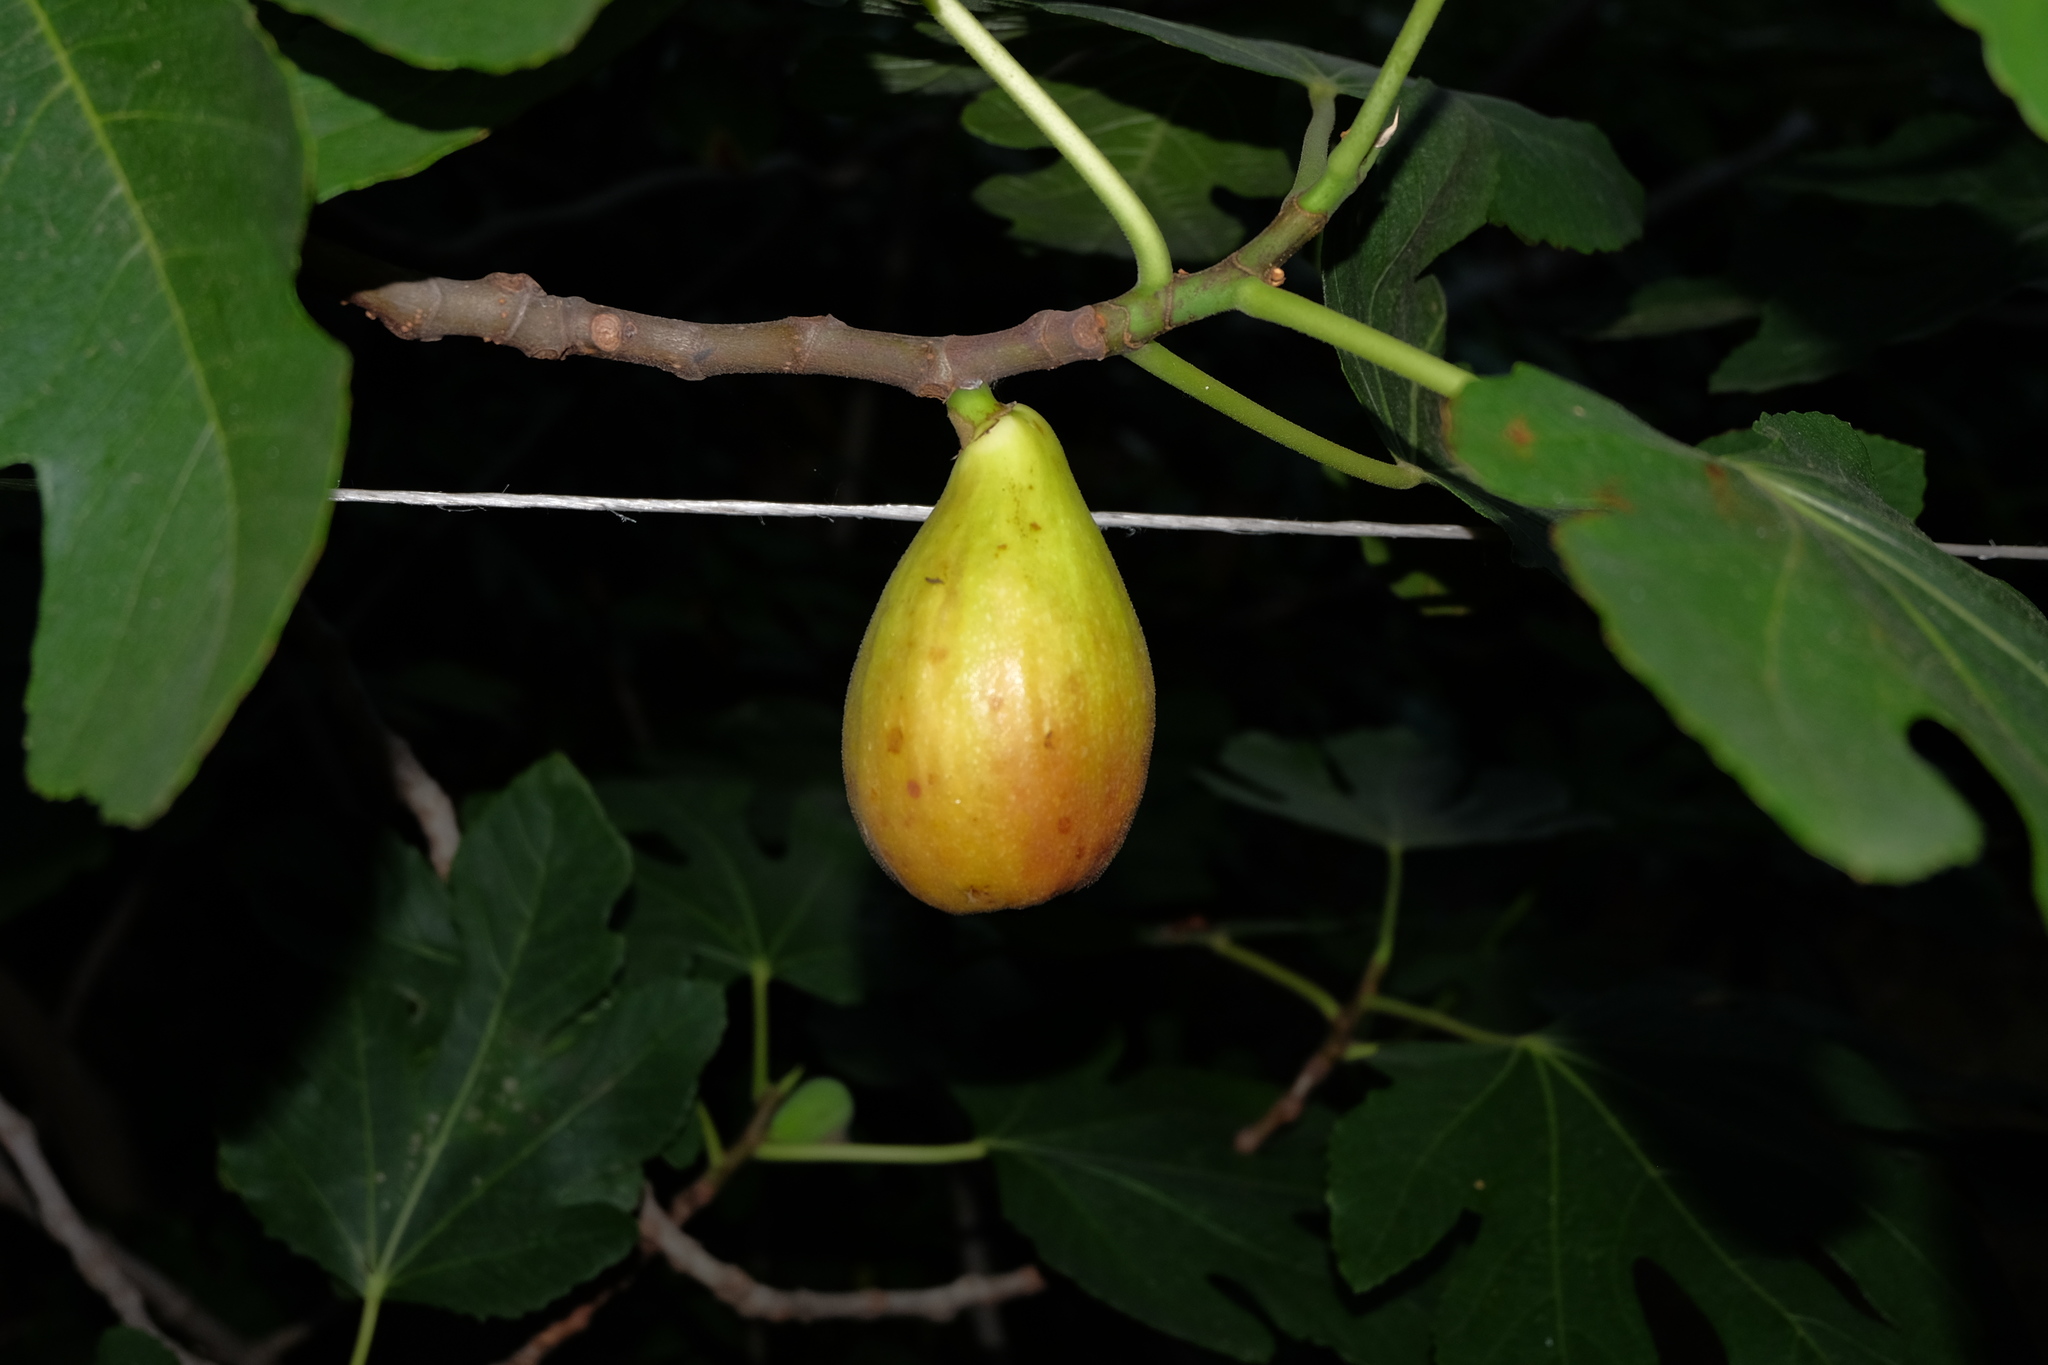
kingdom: Plantae
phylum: Tracheophyta
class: Magnoliopsida
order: Rosales
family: Moraceae
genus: Ficus
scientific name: Ficus carica
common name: Fig
